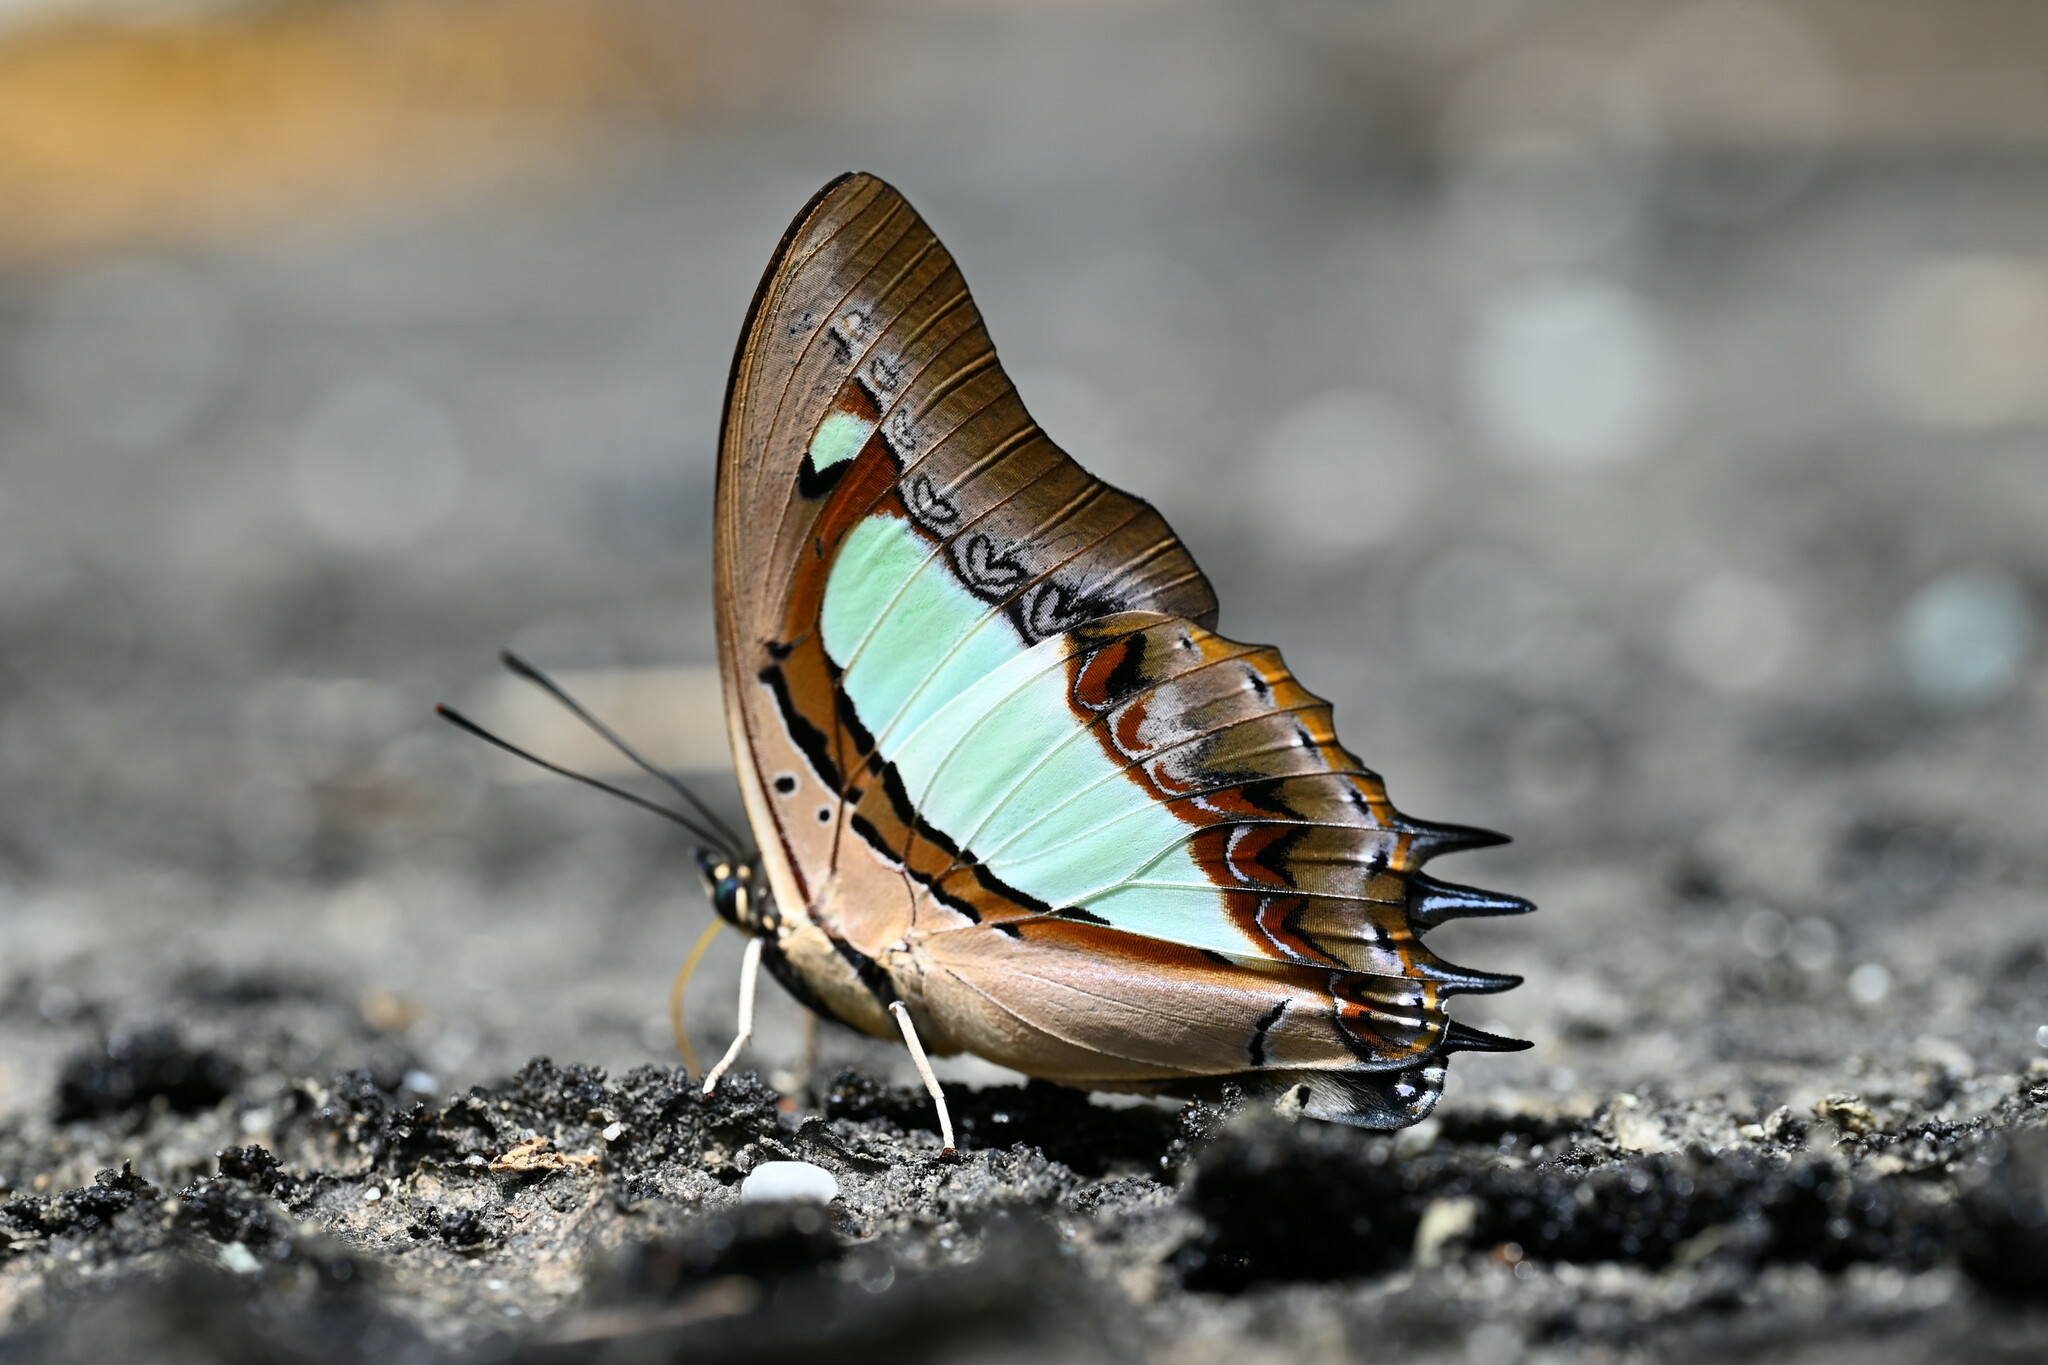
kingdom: Animalia
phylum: Arthropoda
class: Insecta
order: Lepidoptera
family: Nymphalidae
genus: Polyura
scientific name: Polyura
